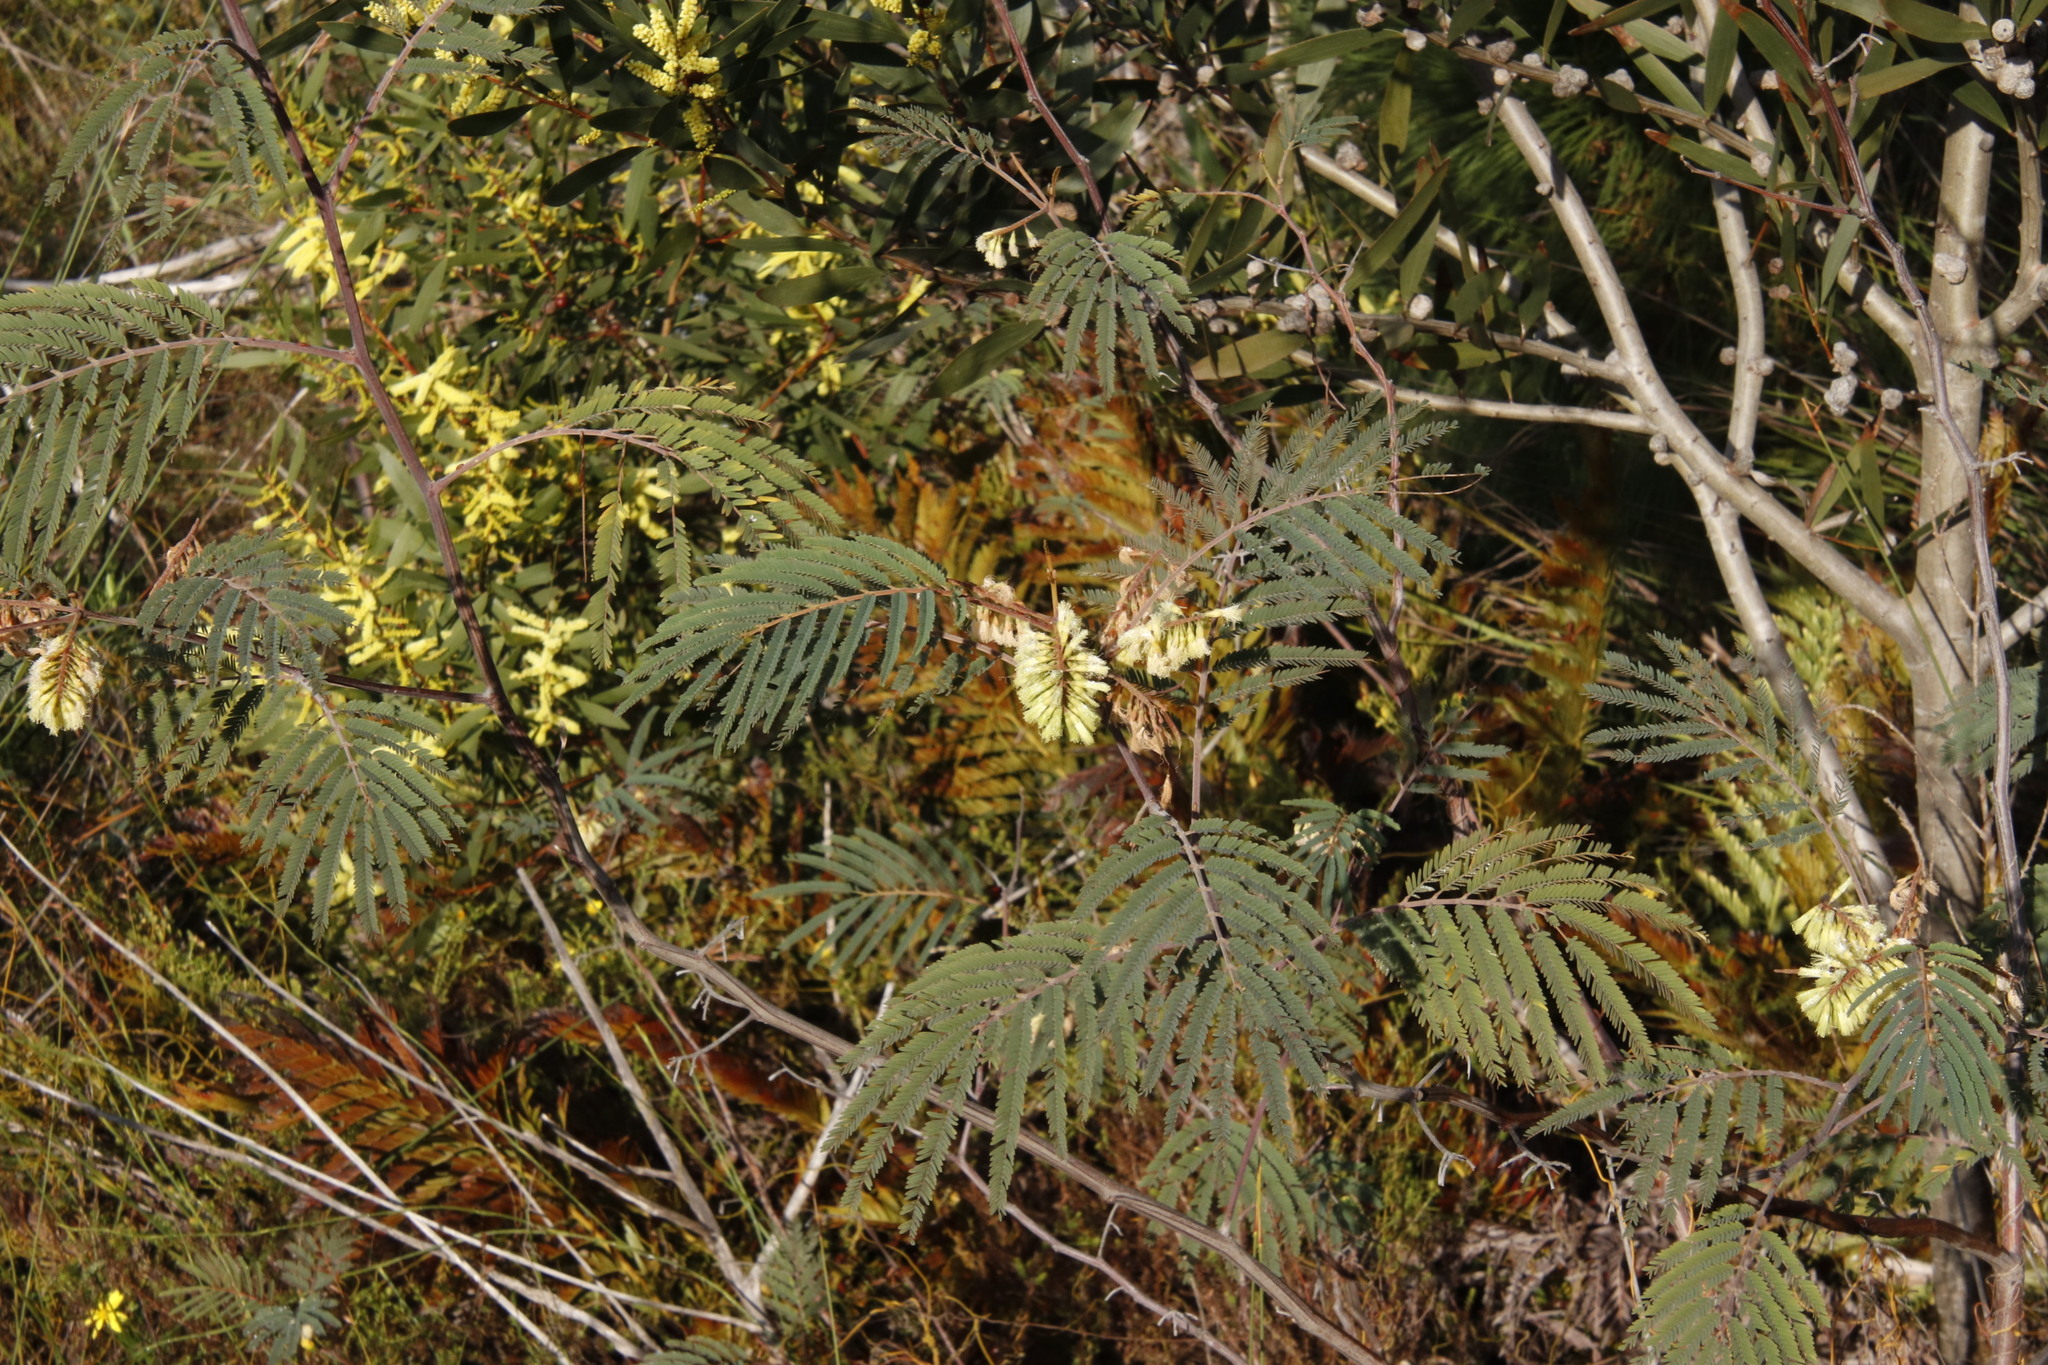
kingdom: Plantae
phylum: Tracheophyta
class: Magnoliopsida
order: Fabales
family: Fabaceae
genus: Paraserianthes
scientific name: Paraserianthes lophantha
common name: Plume albizia
